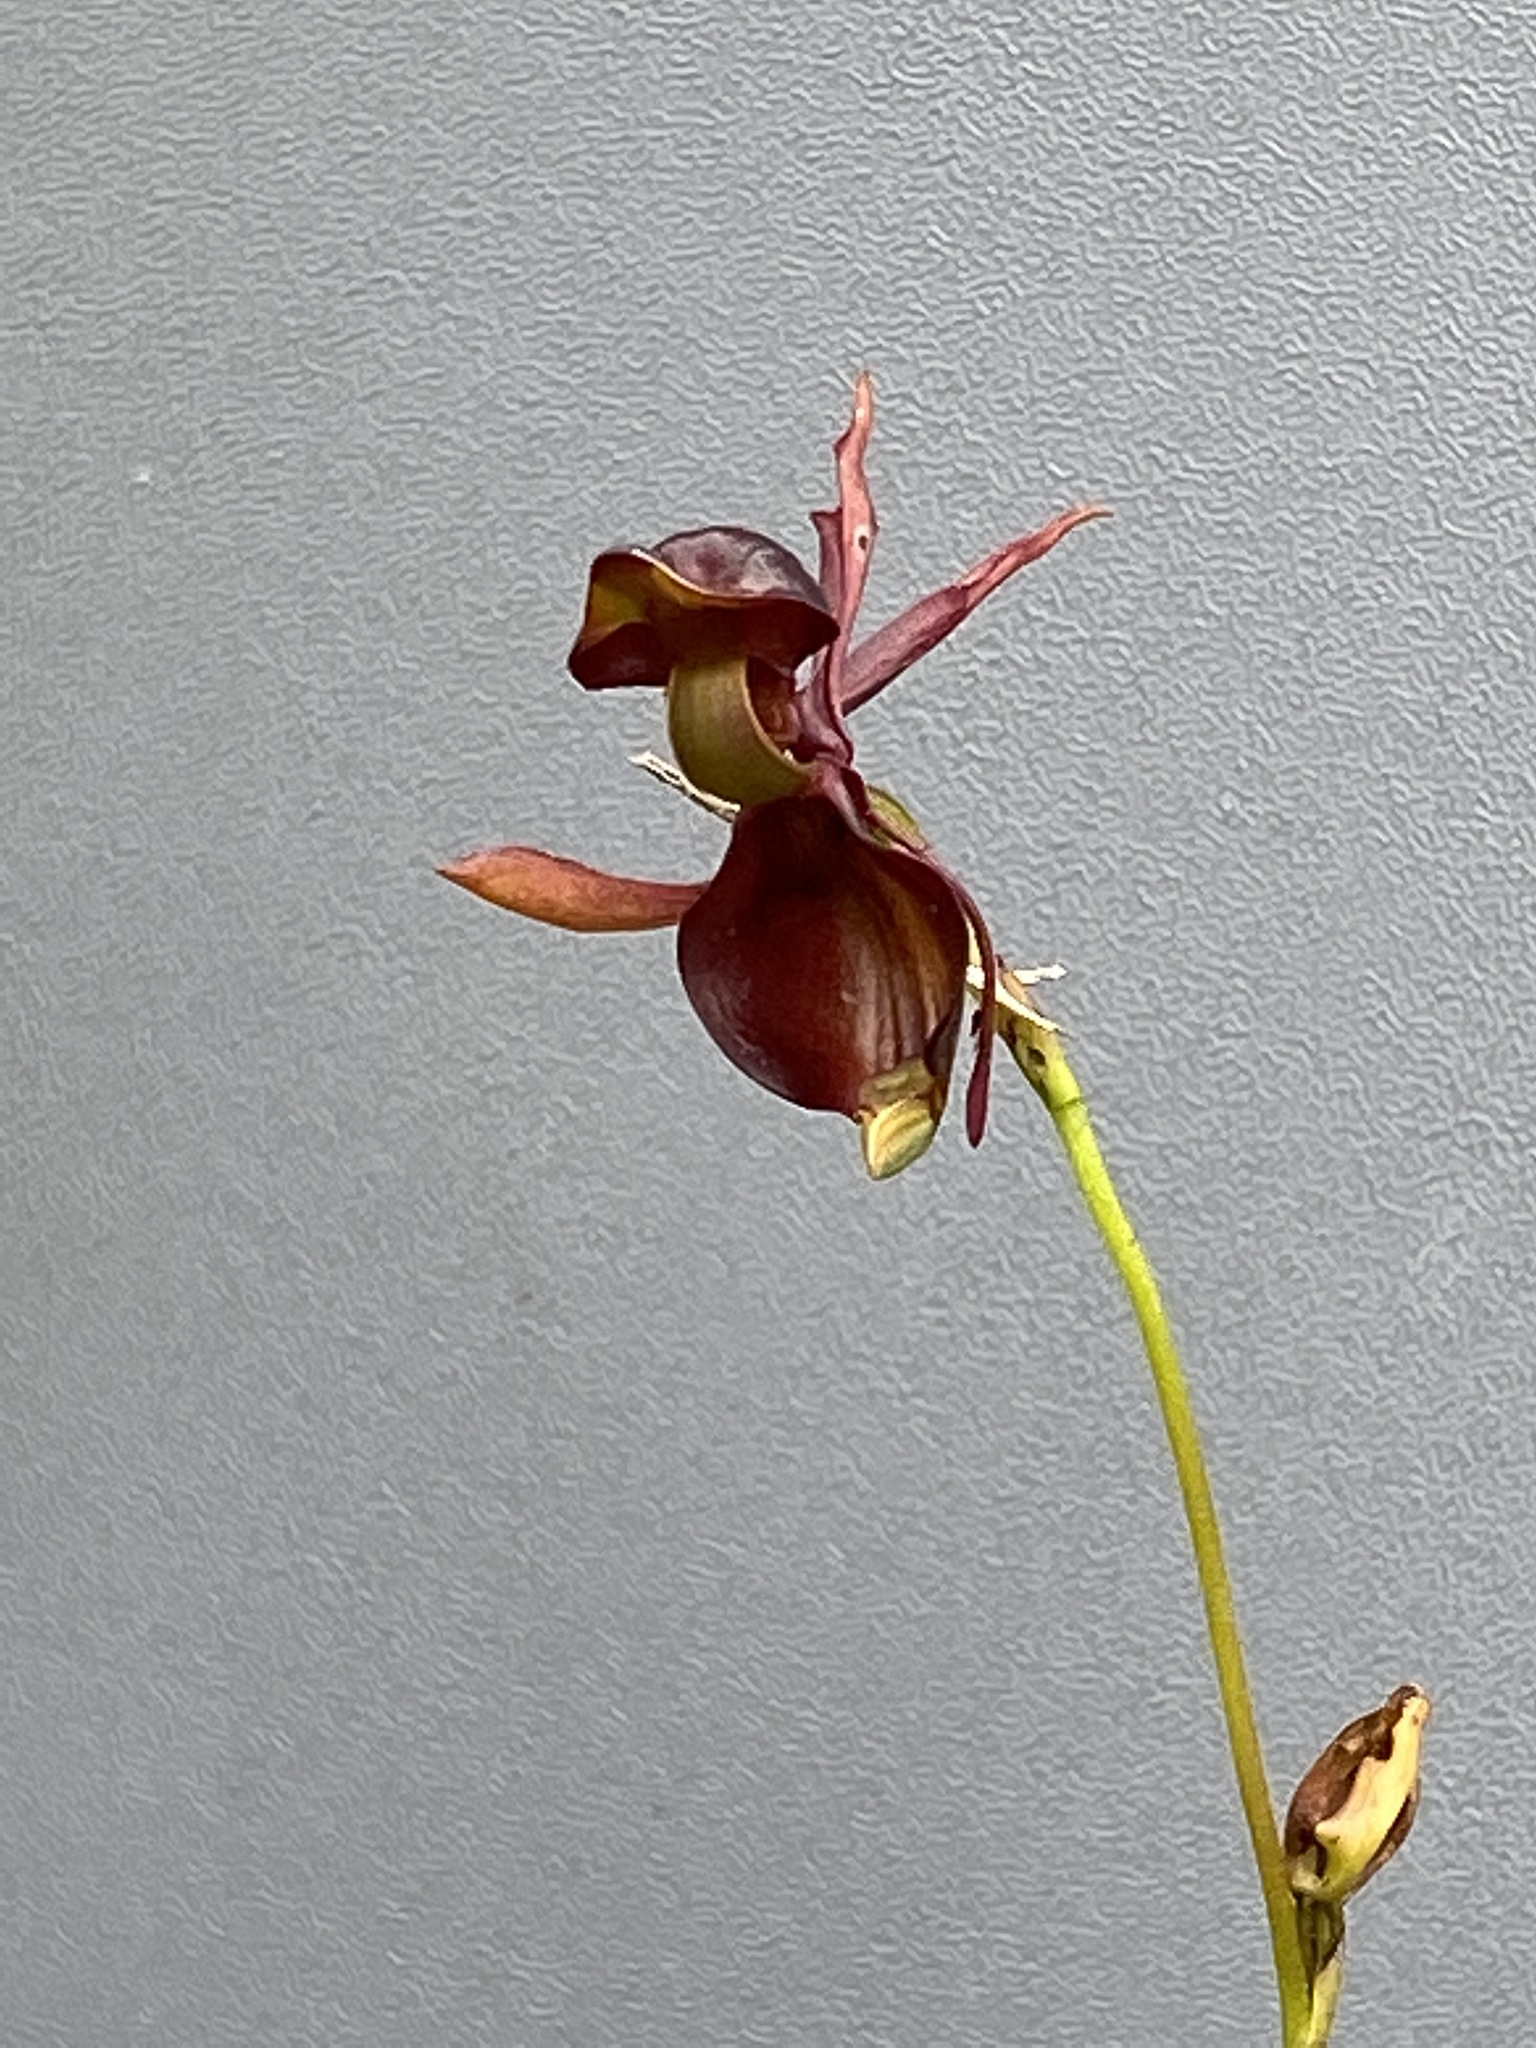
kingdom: Plantae
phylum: Tracheophyta
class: Liliopsida
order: Asparagales
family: Orchidaceae
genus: Caleana
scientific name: Caleana major
